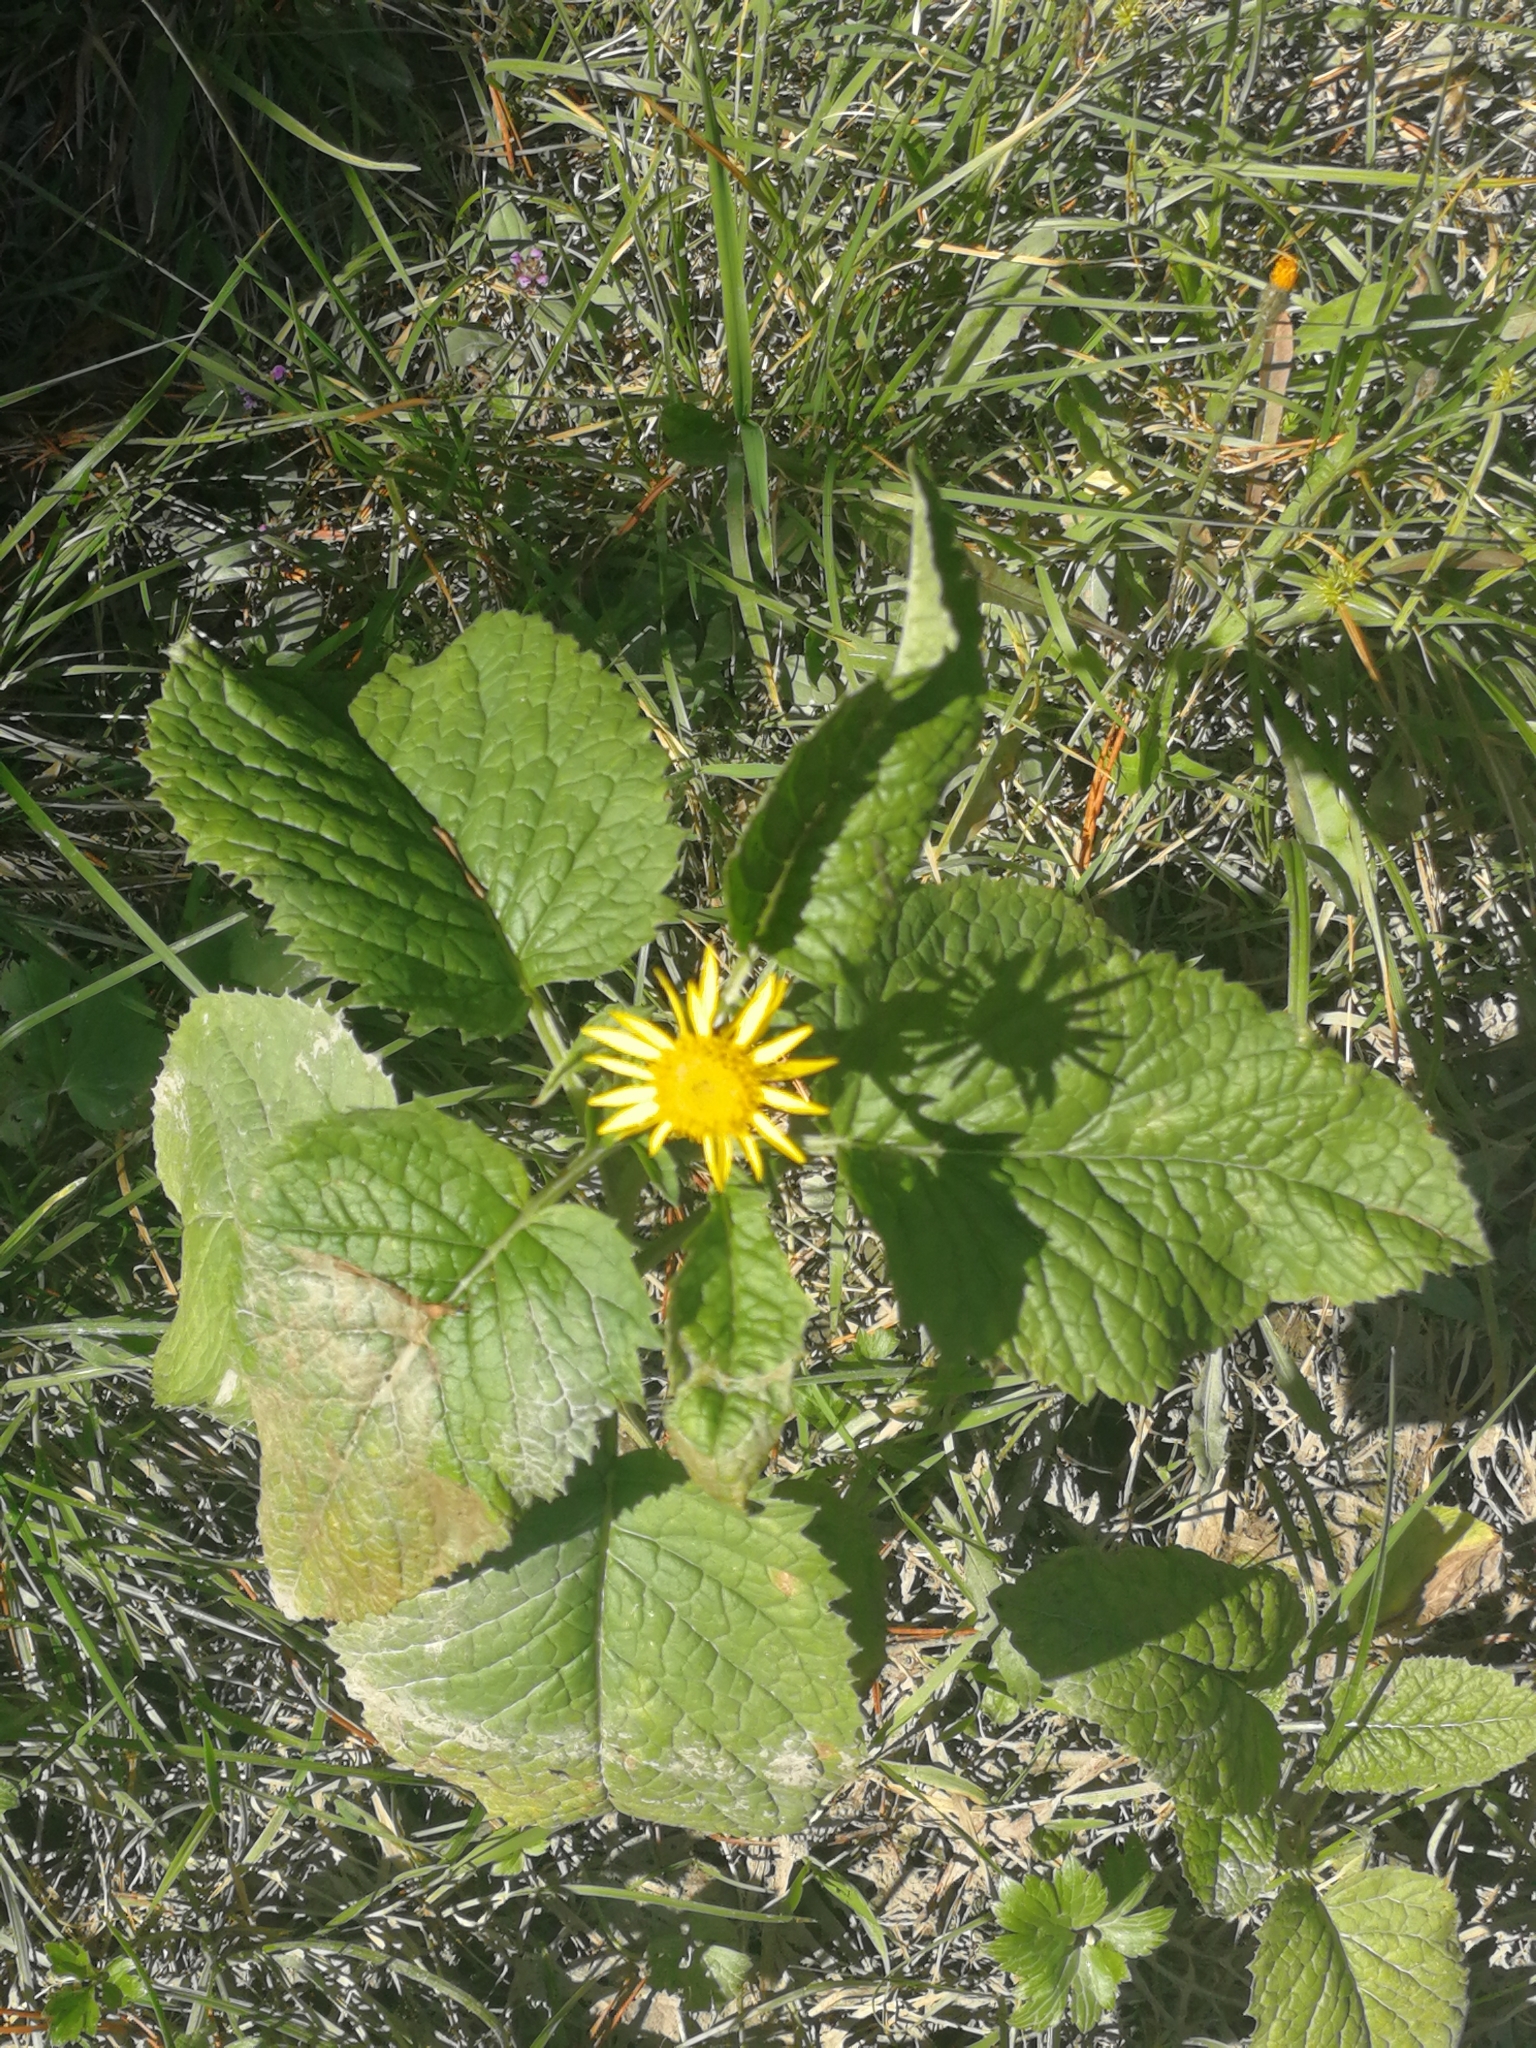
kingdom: Plantae
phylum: Tracheophyta
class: Magnoliopsida
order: Asterales
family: Asteraceae
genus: Jacobaea
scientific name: Jacobaea alpina
